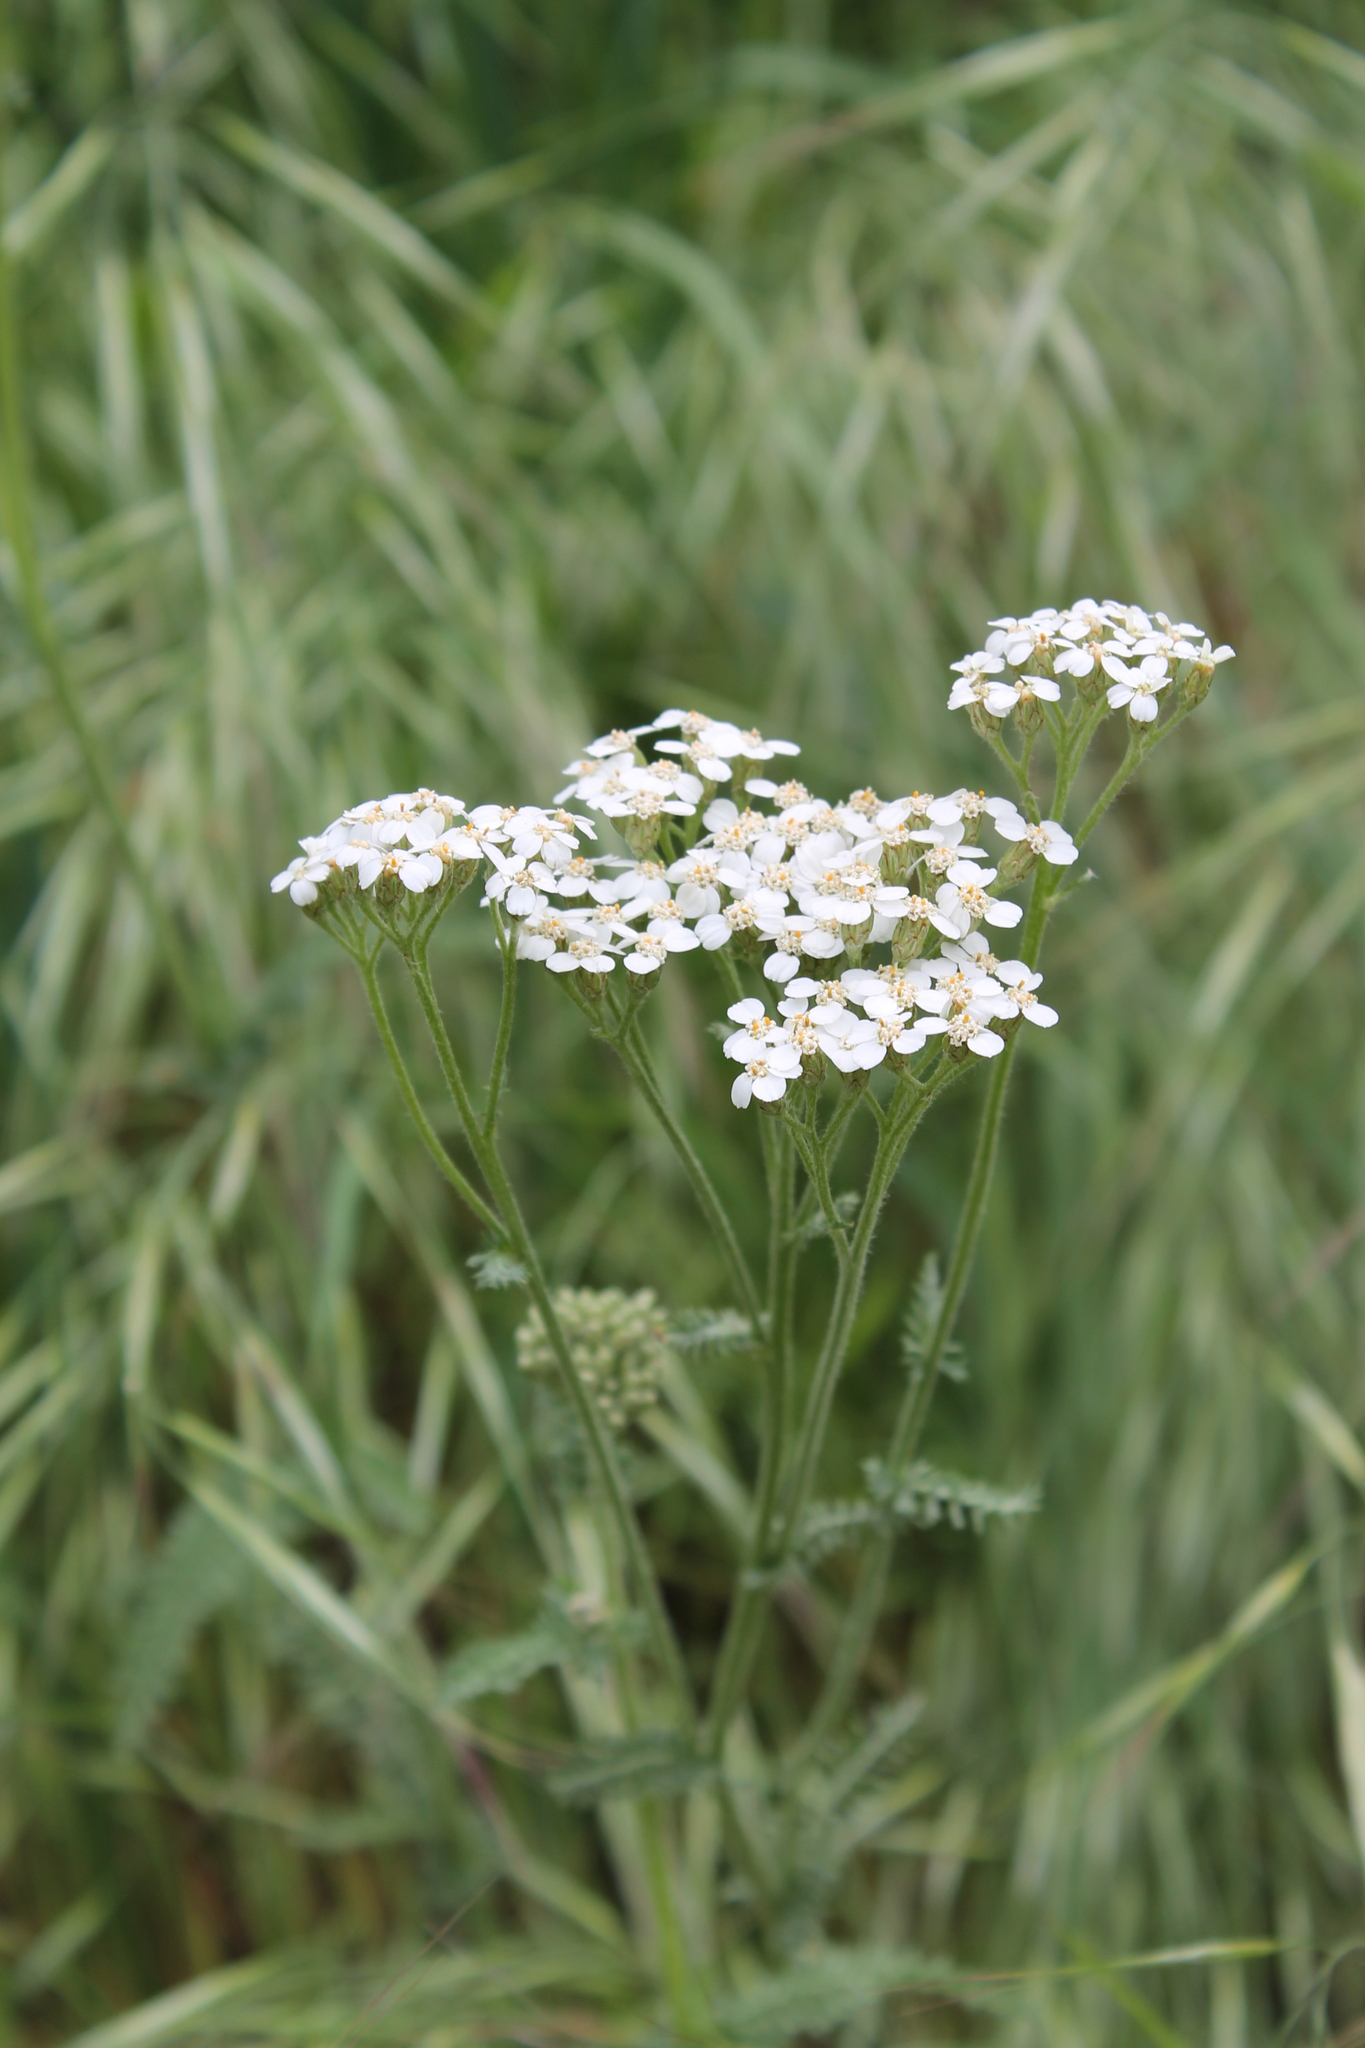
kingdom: Plantae
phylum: Tracheophyta
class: Magnoliopsida
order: Asterales
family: Asteraceae
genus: Achillea
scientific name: Achillea millefolium
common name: Yarrow
